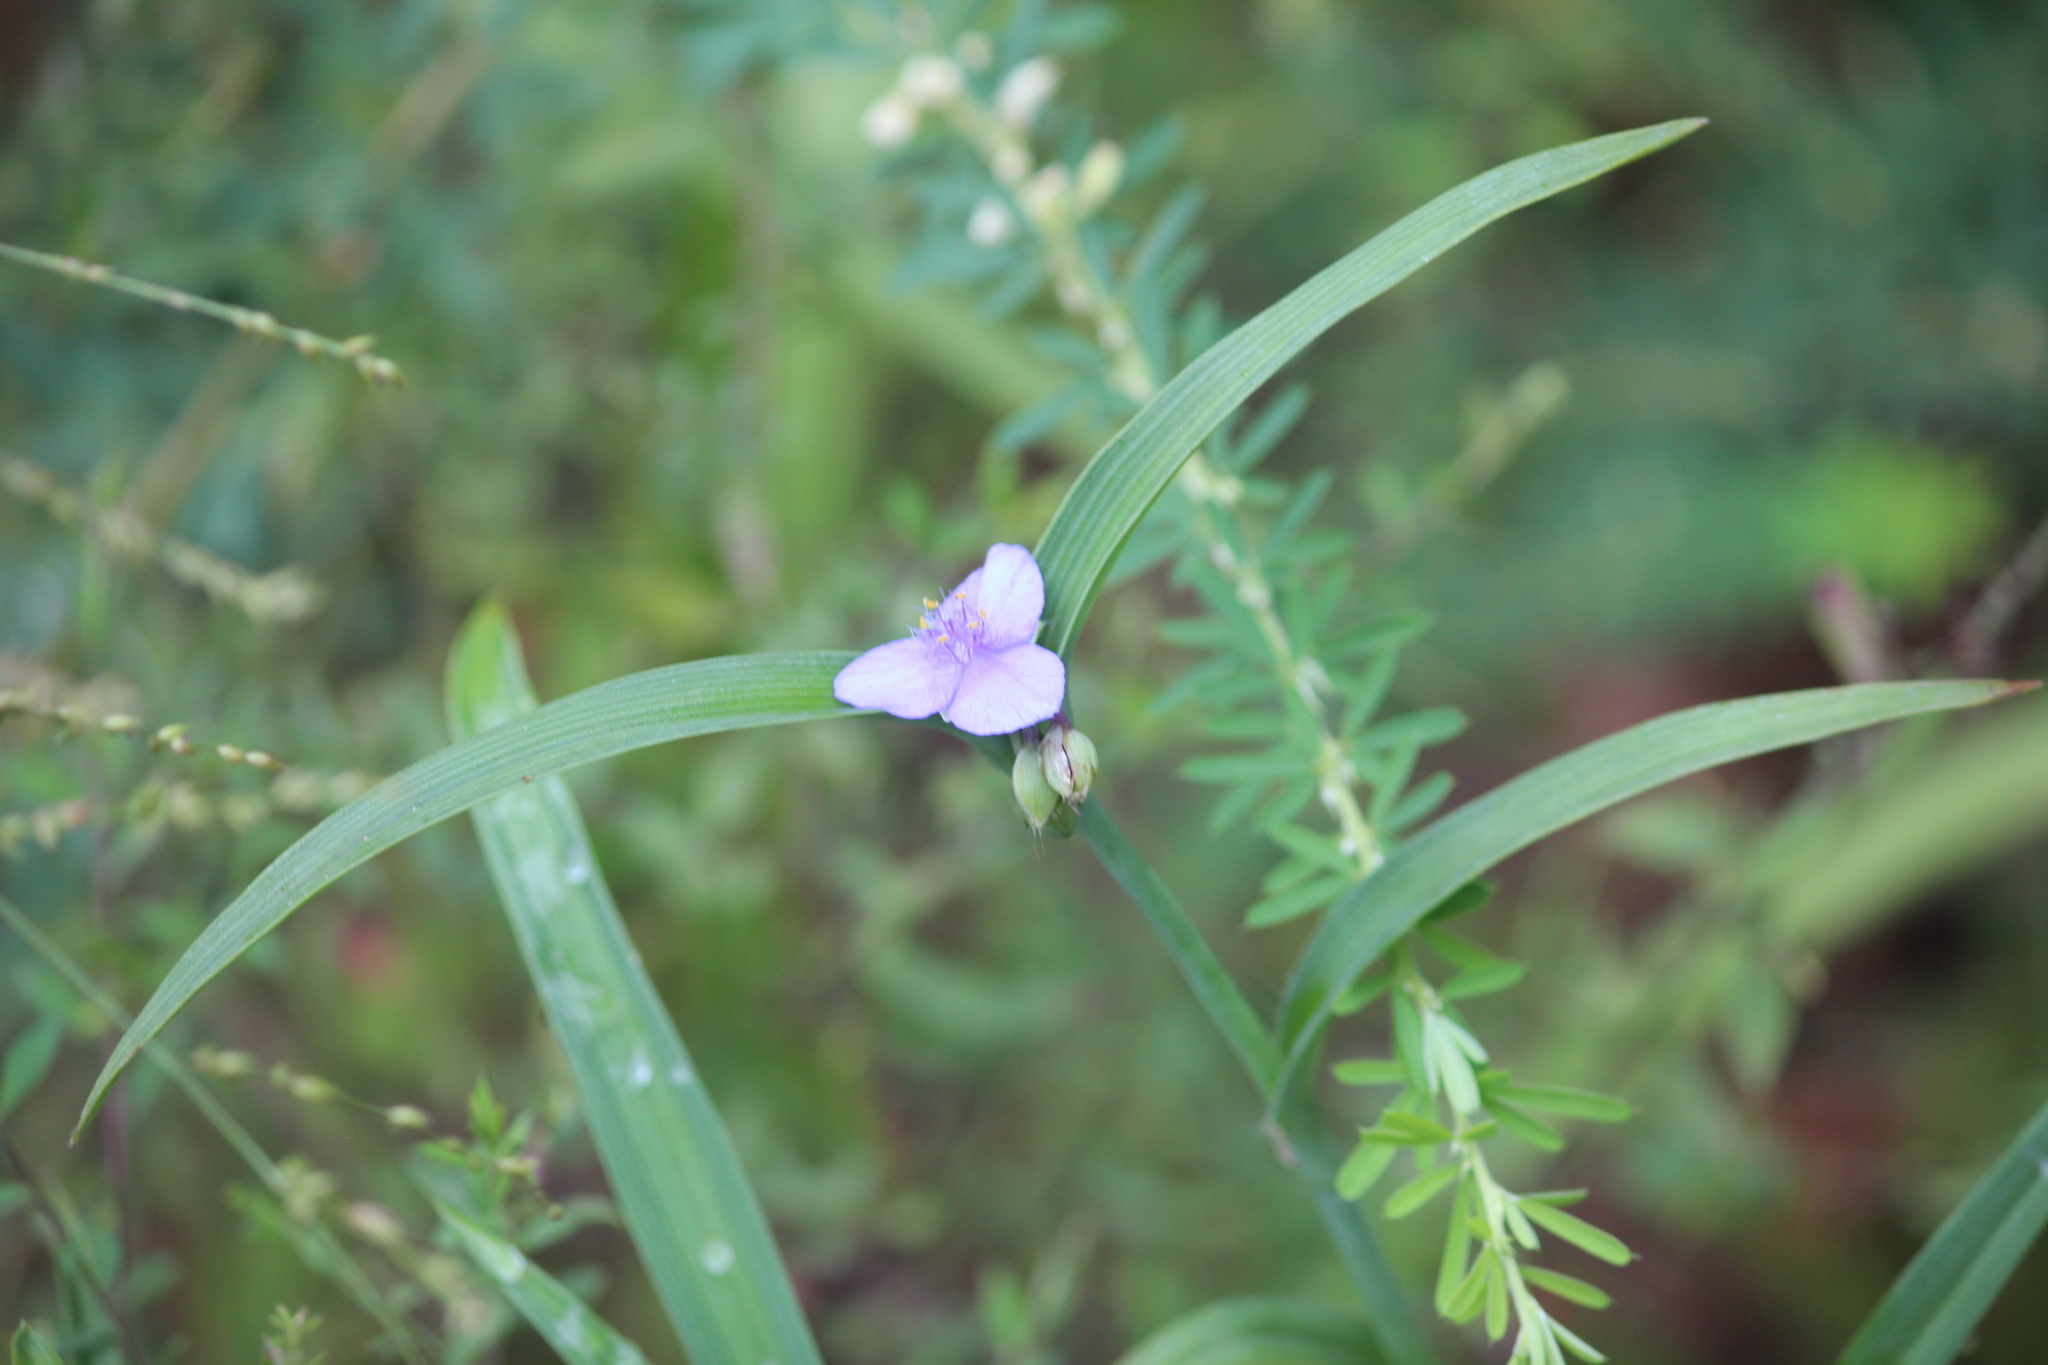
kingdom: Plantae
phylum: Tracheophyta
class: Liliopsida
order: Commelinales
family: Commelinaceae
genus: Tradescantia
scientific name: Tradescantia ohiensis
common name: Ohio spiderwort
